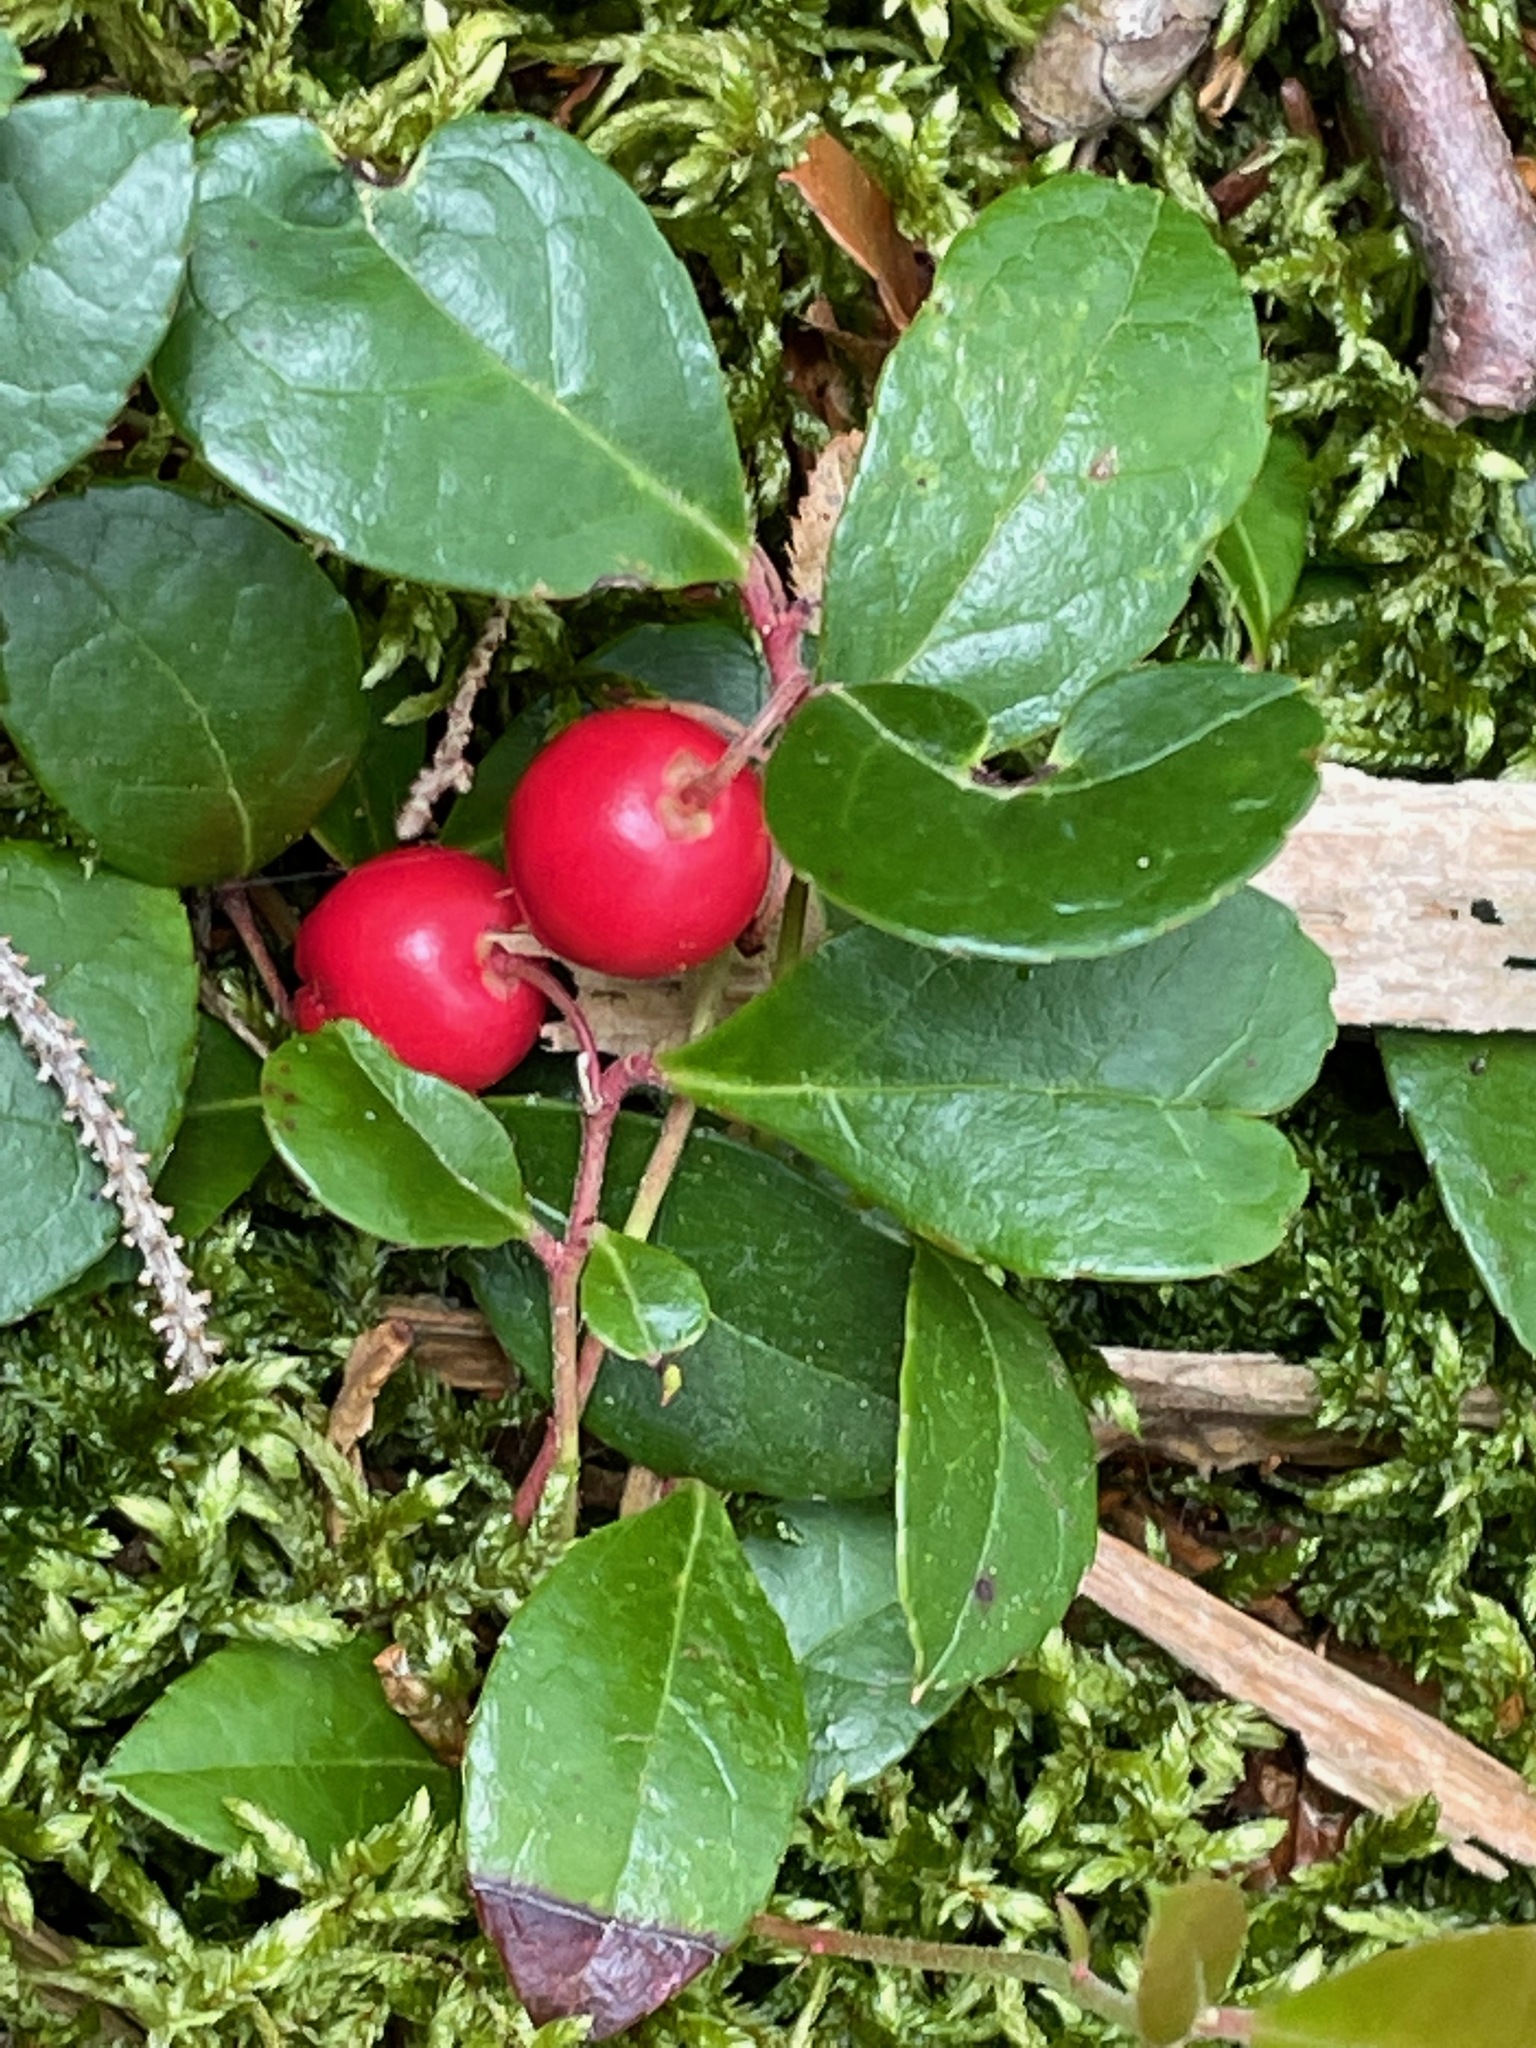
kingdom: Plantae
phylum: Tracheophyta
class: Magnoliopsida
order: Ericales
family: Ericaceae
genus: Gaultheria
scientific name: Gaultheria procumbens
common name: Checkerberry
